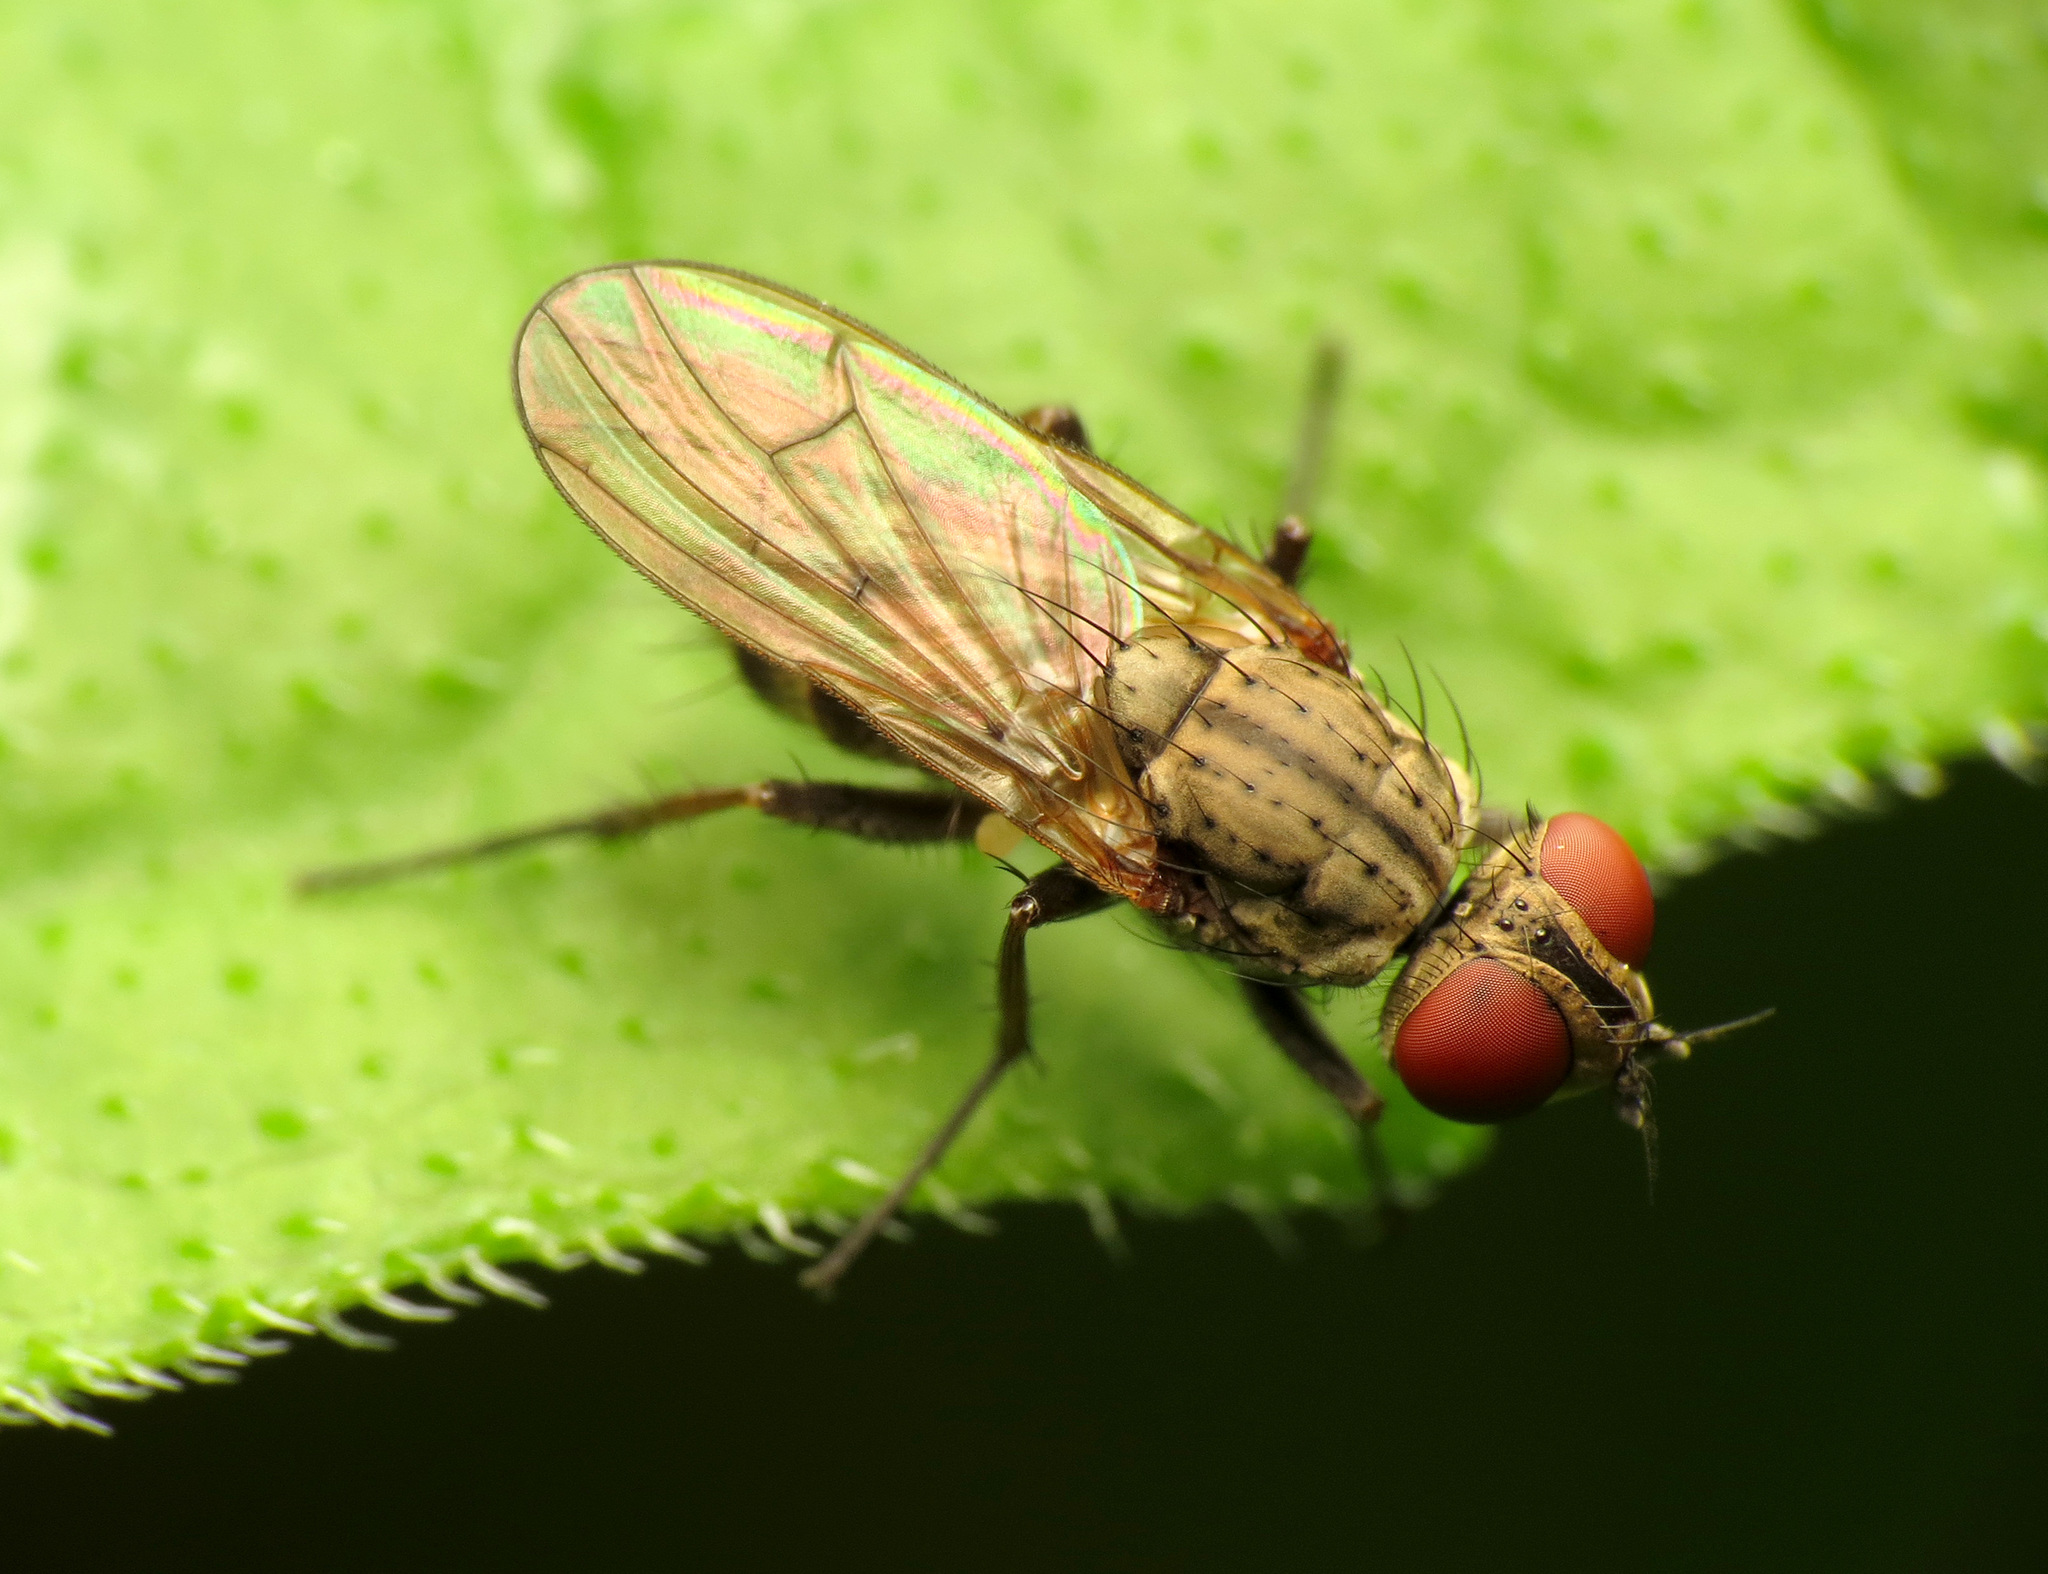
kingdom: Animalia
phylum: Arthropoda
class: Insecta
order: Diptera
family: Anthomyiidae
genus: Leucophora
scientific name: Leucophora johnsoni
